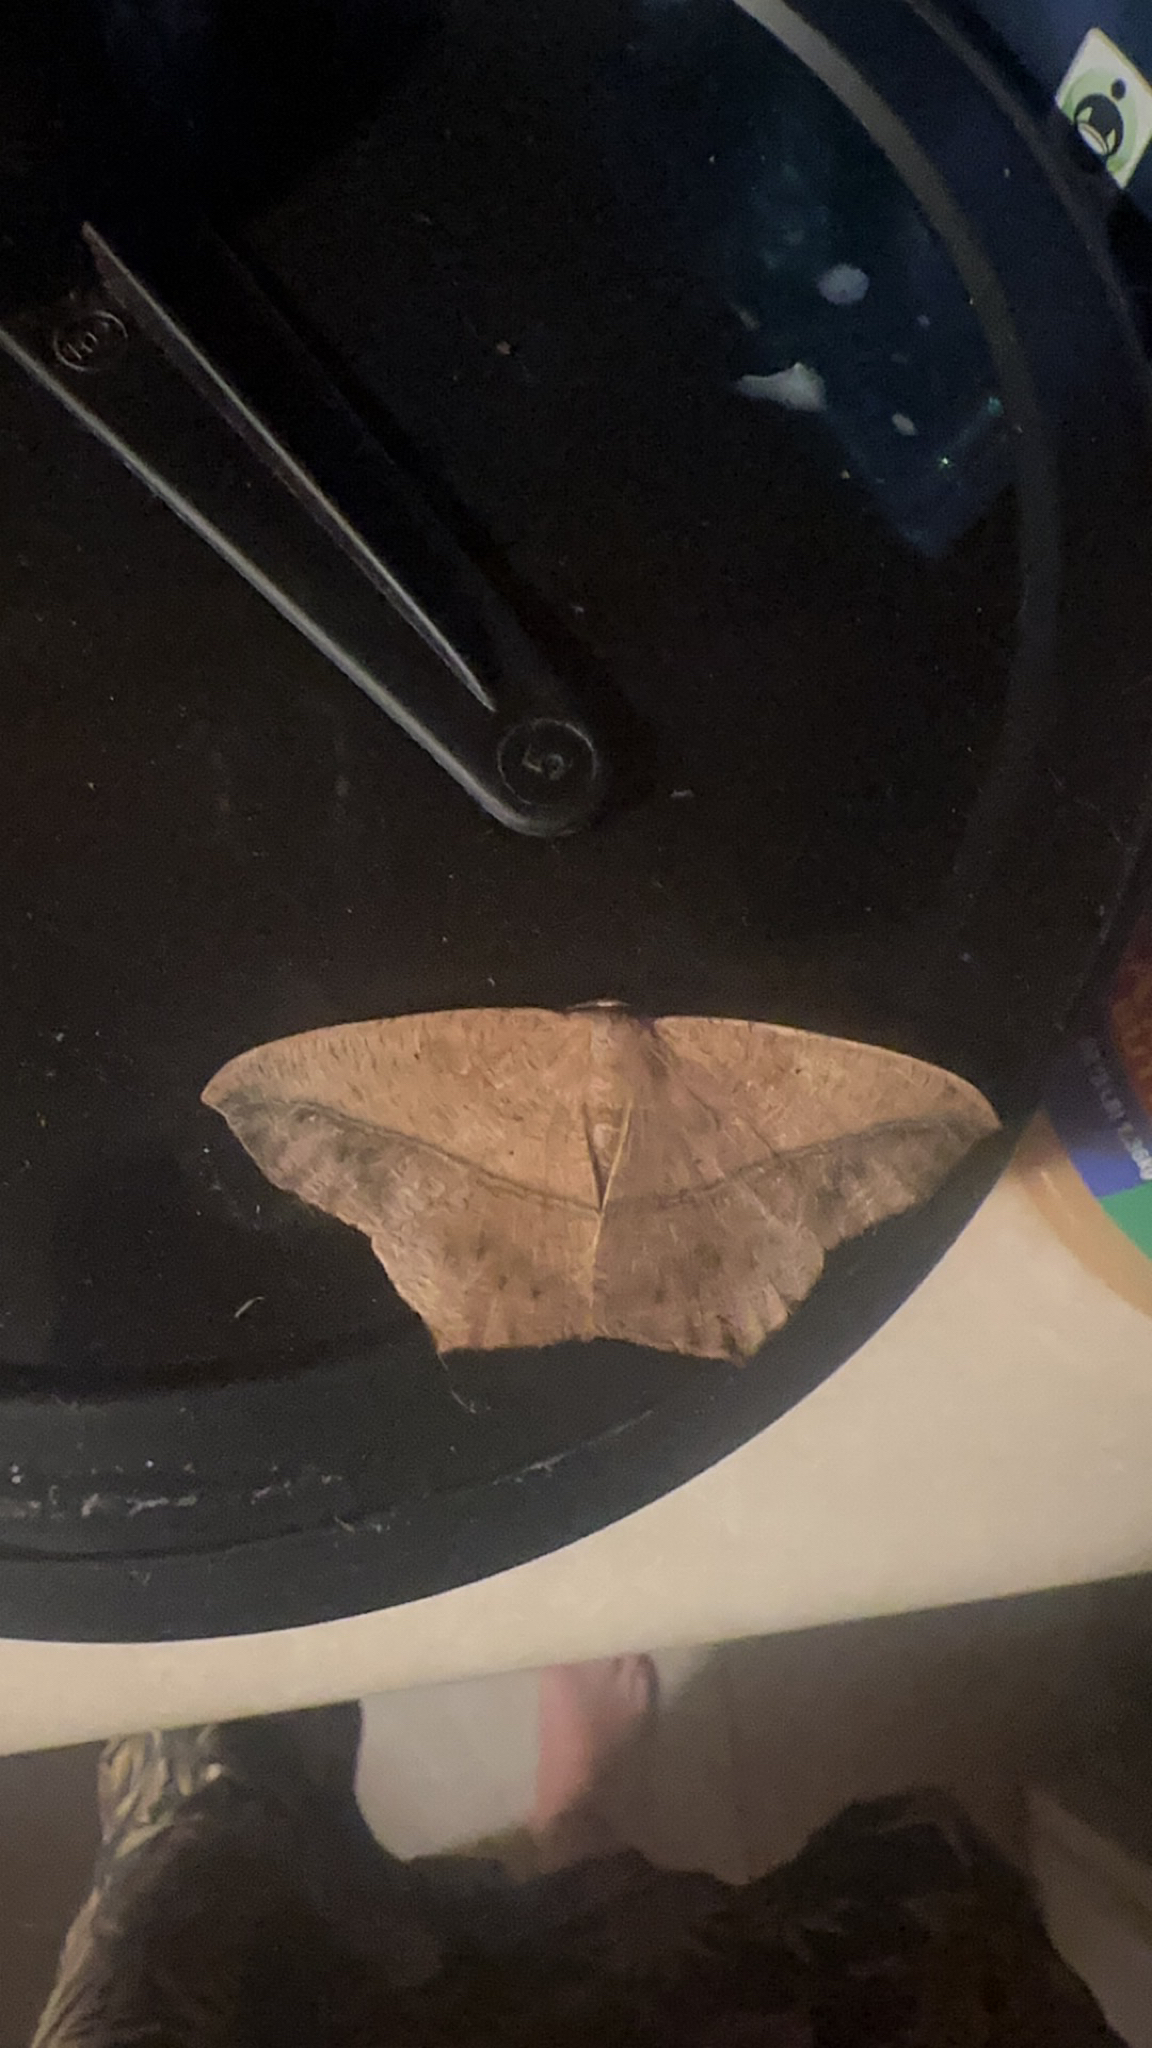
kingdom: Animalia
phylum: Arthropoda
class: Insecta
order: Lepidoptera
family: Geometridae
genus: Prochoerodes
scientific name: Prochoerodes lineola
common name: Large maple spanworm
